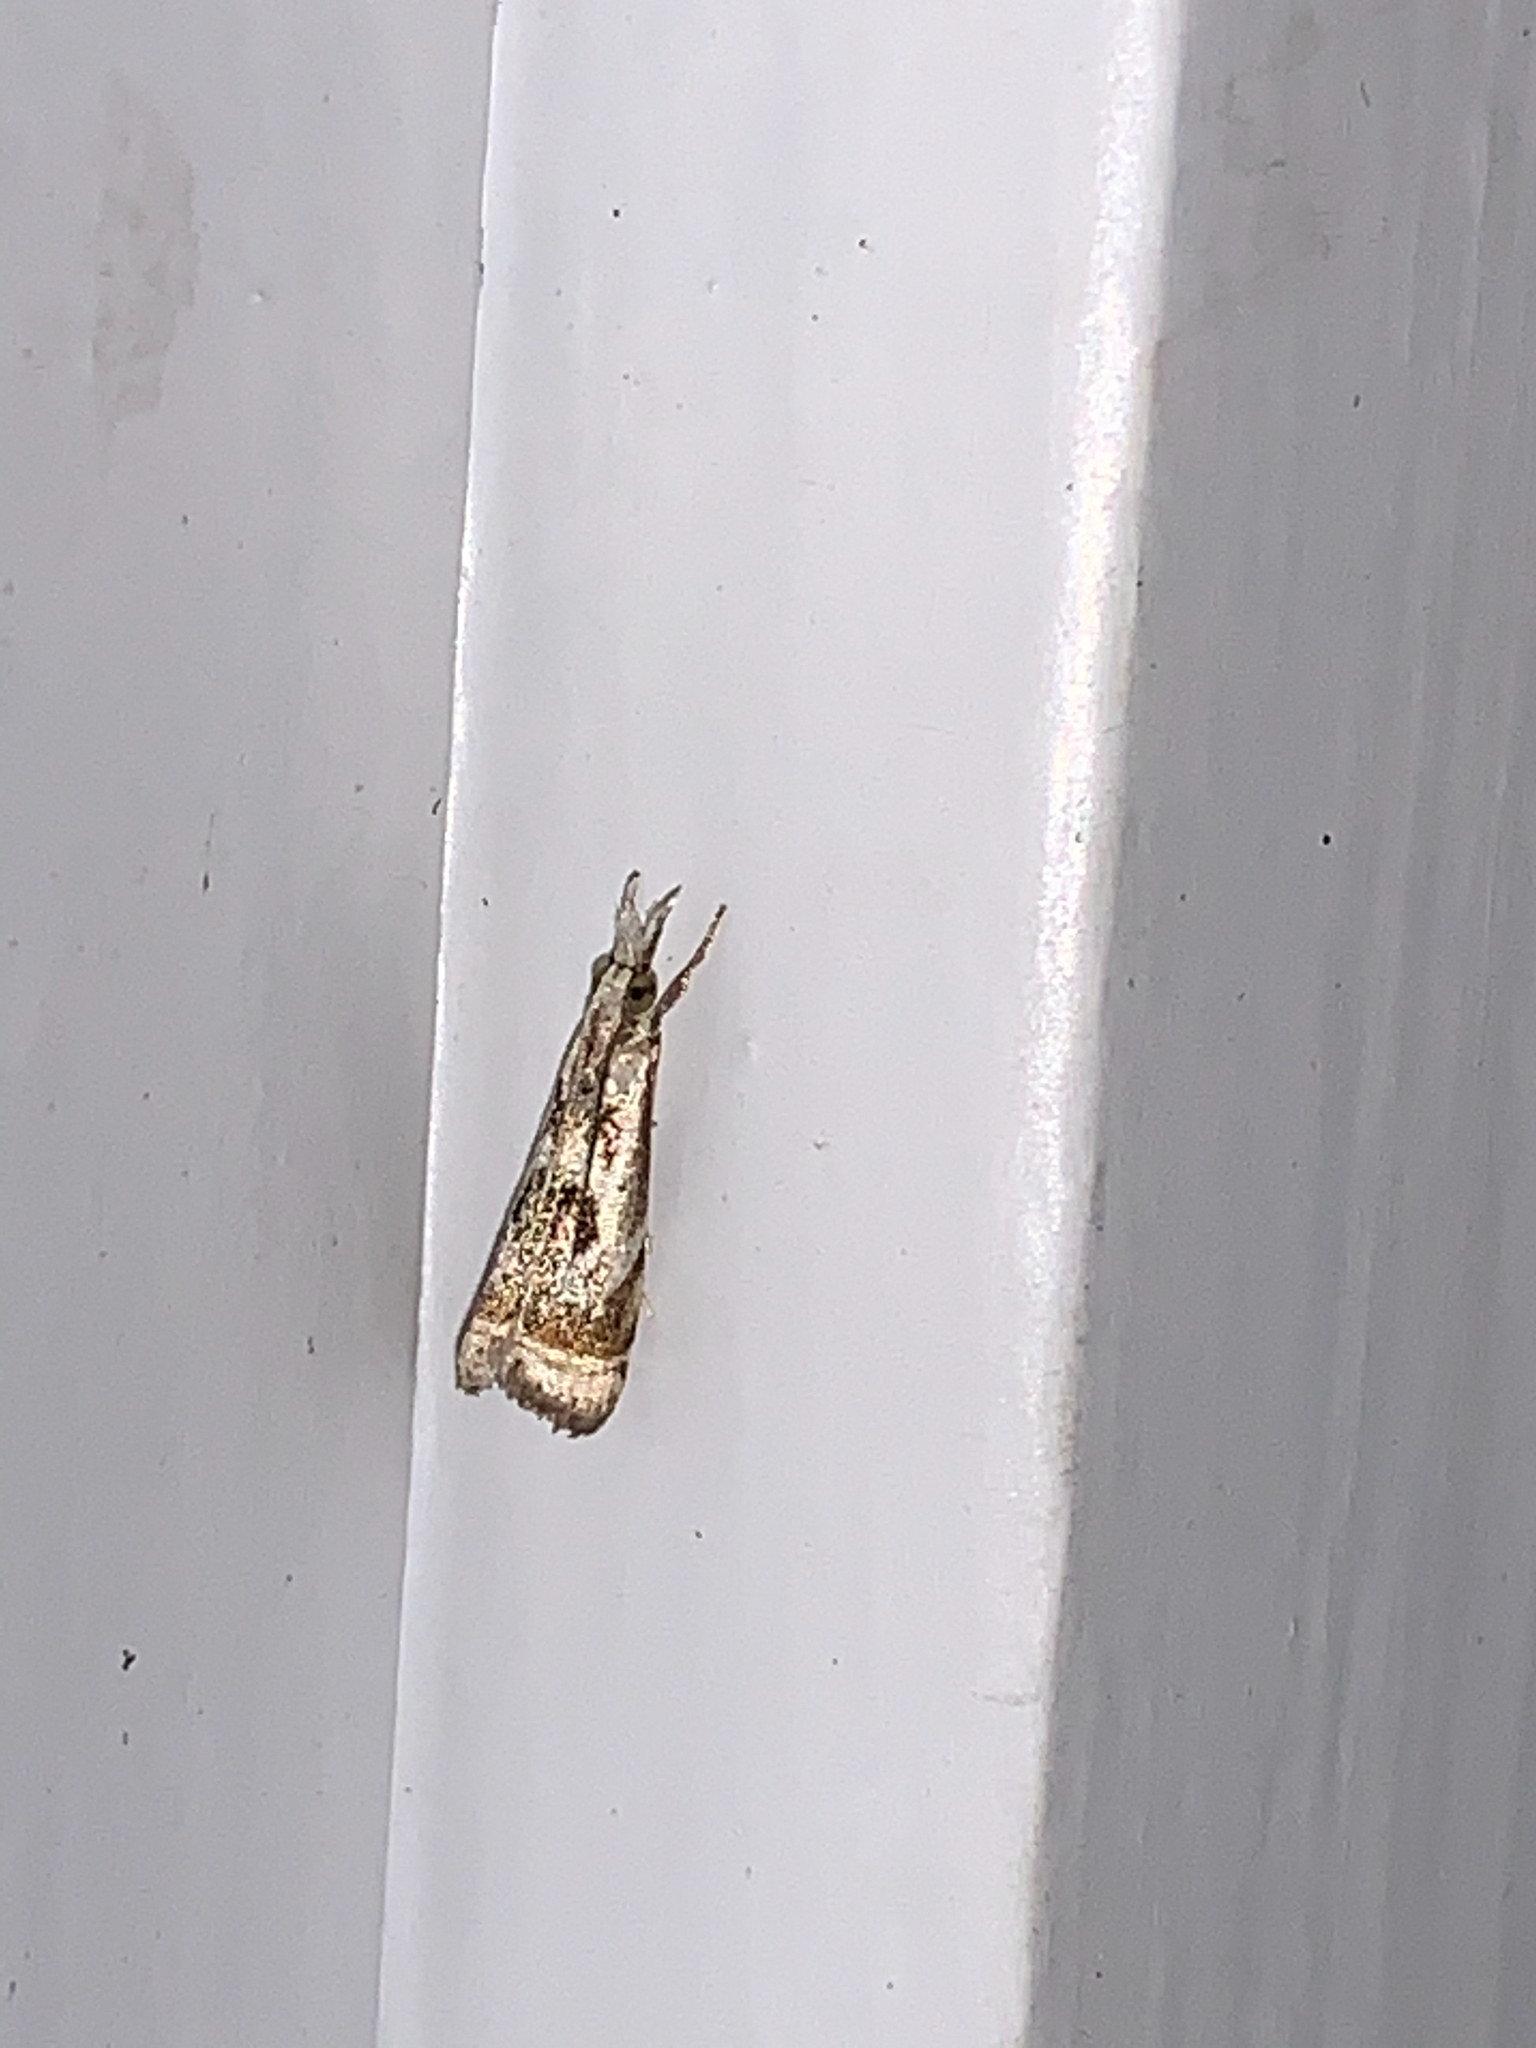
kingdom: Animalia
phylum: Arthropoda
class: Insecta
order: Lepidoptera
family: Crambidae
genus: Microcrambus
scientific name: Microcrambus elegans
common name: Elegant grass-veneer
